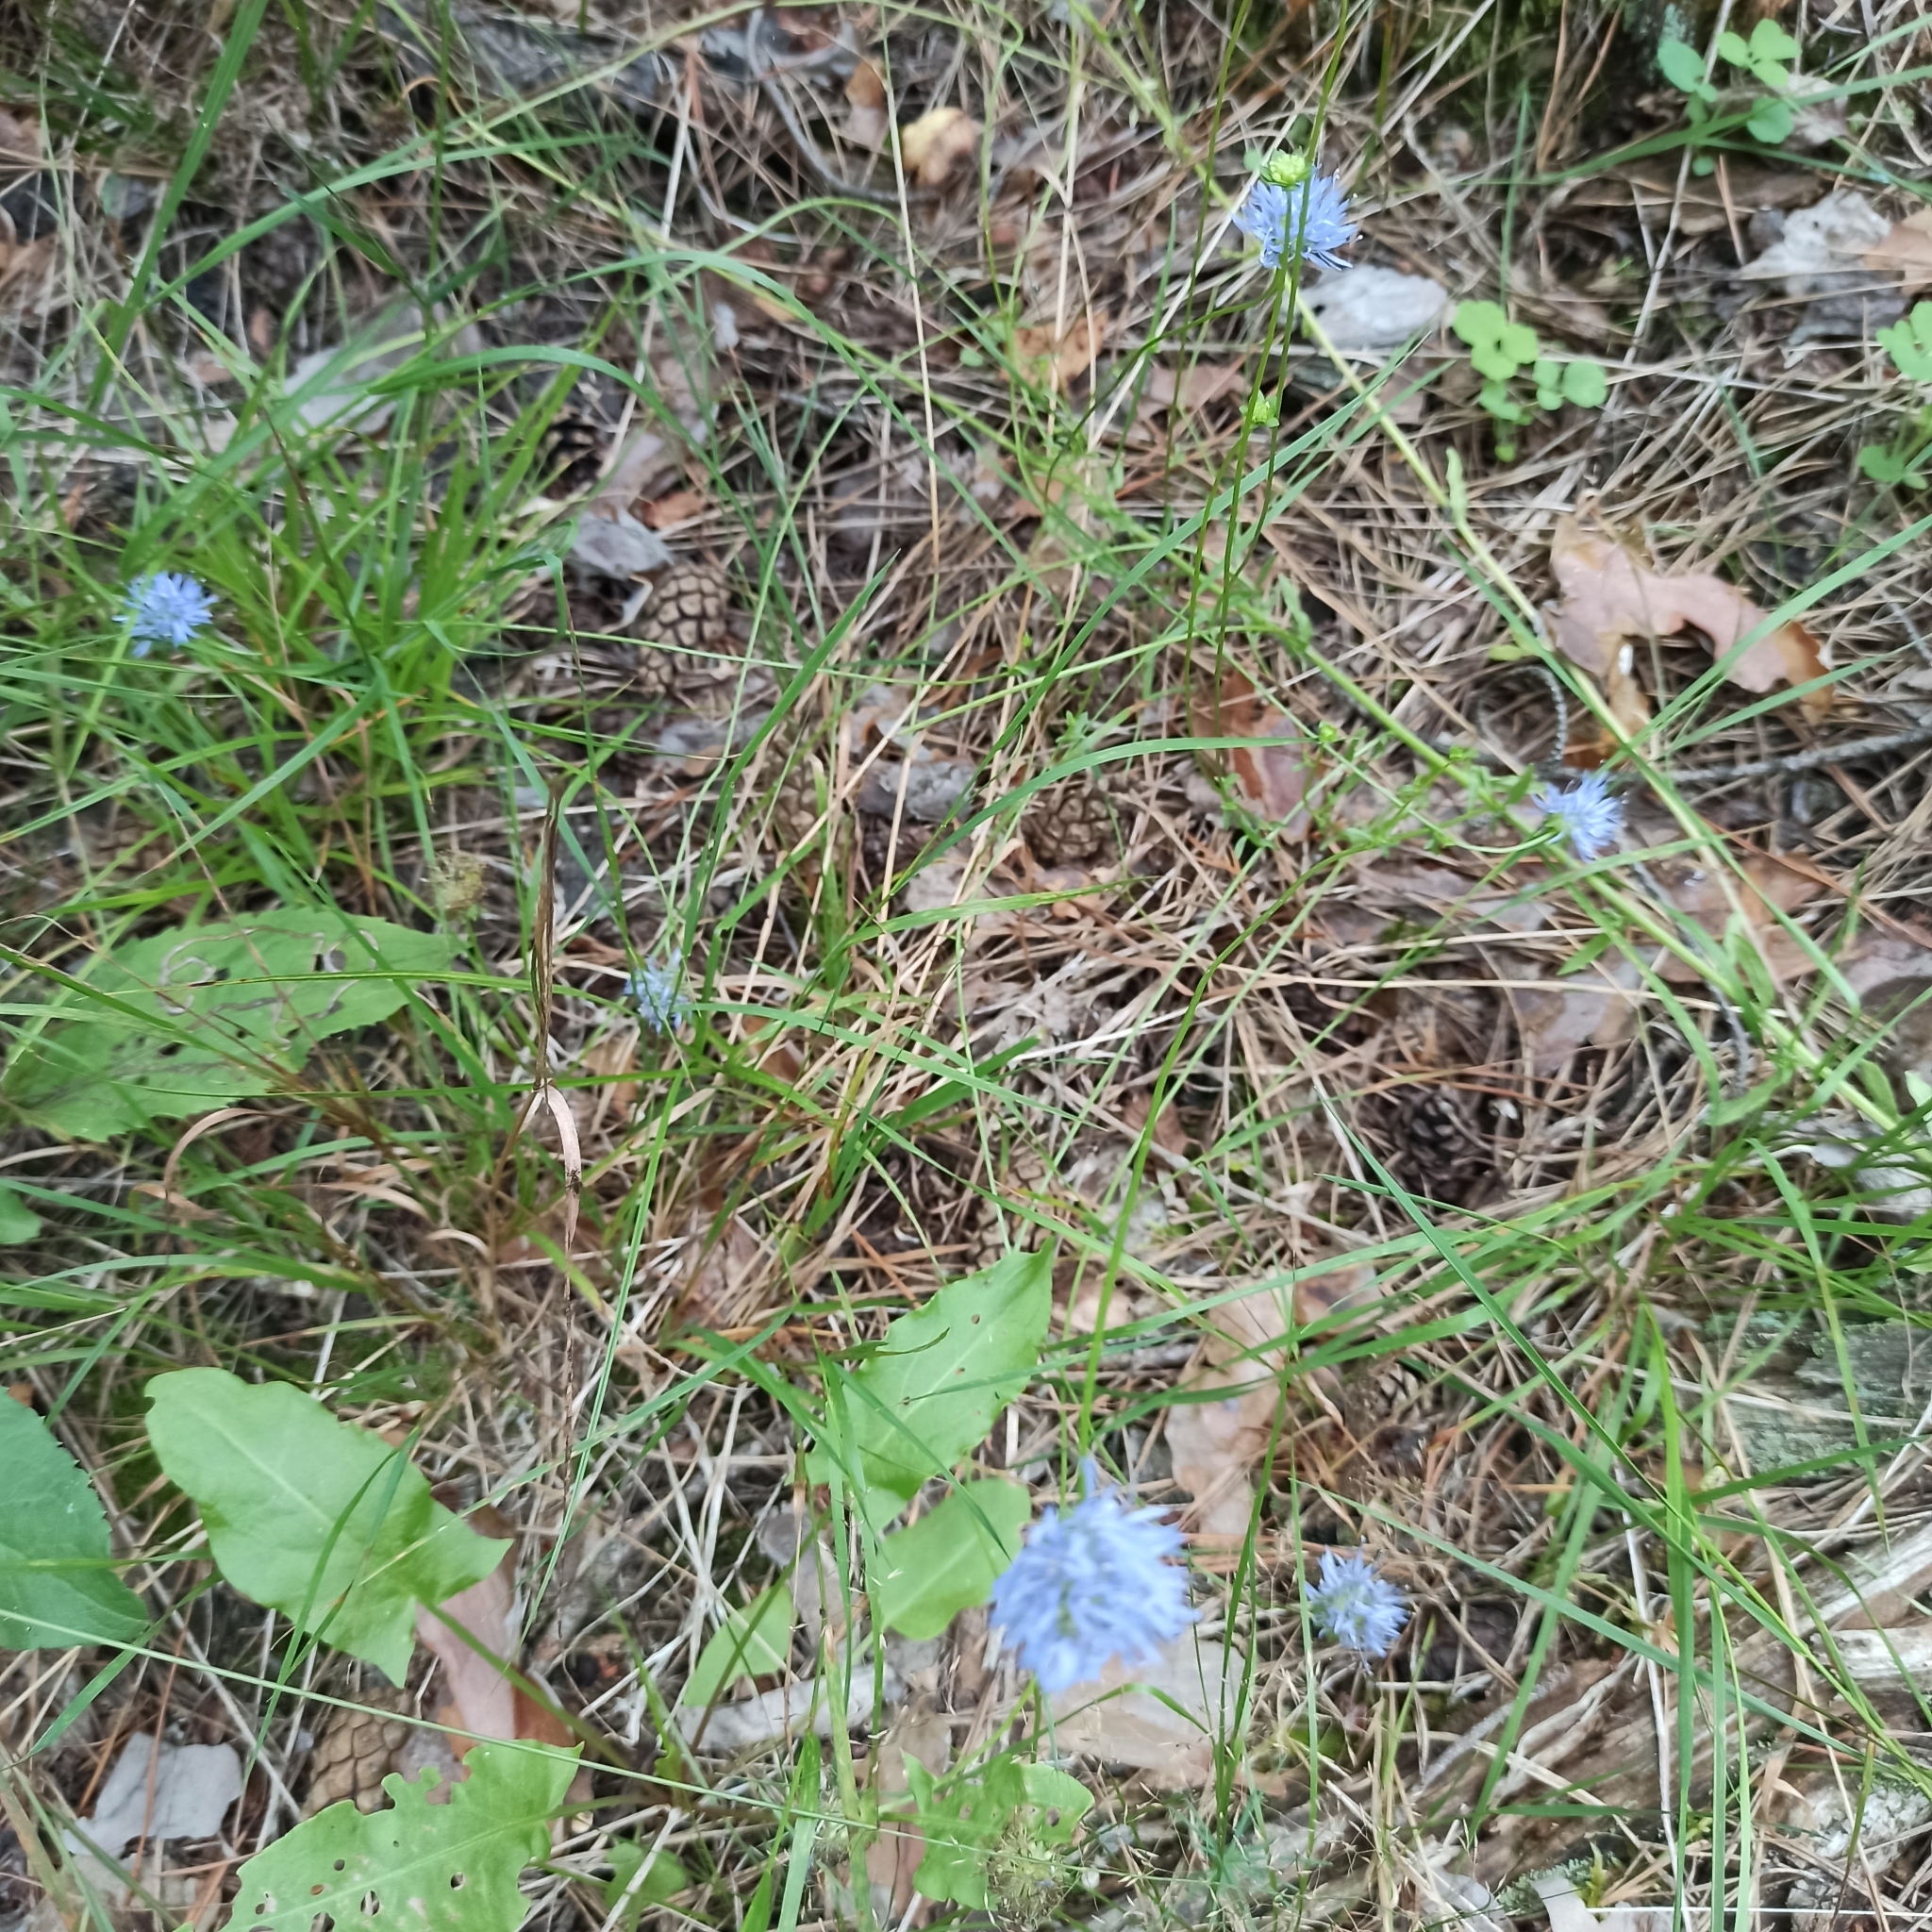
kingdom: Plantae
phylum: Tracheophyta
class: Magnoliopsida
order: Asterales
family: Campanulaceae
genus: Jasione
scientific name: Jasione montana
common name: Sheep's-bit
